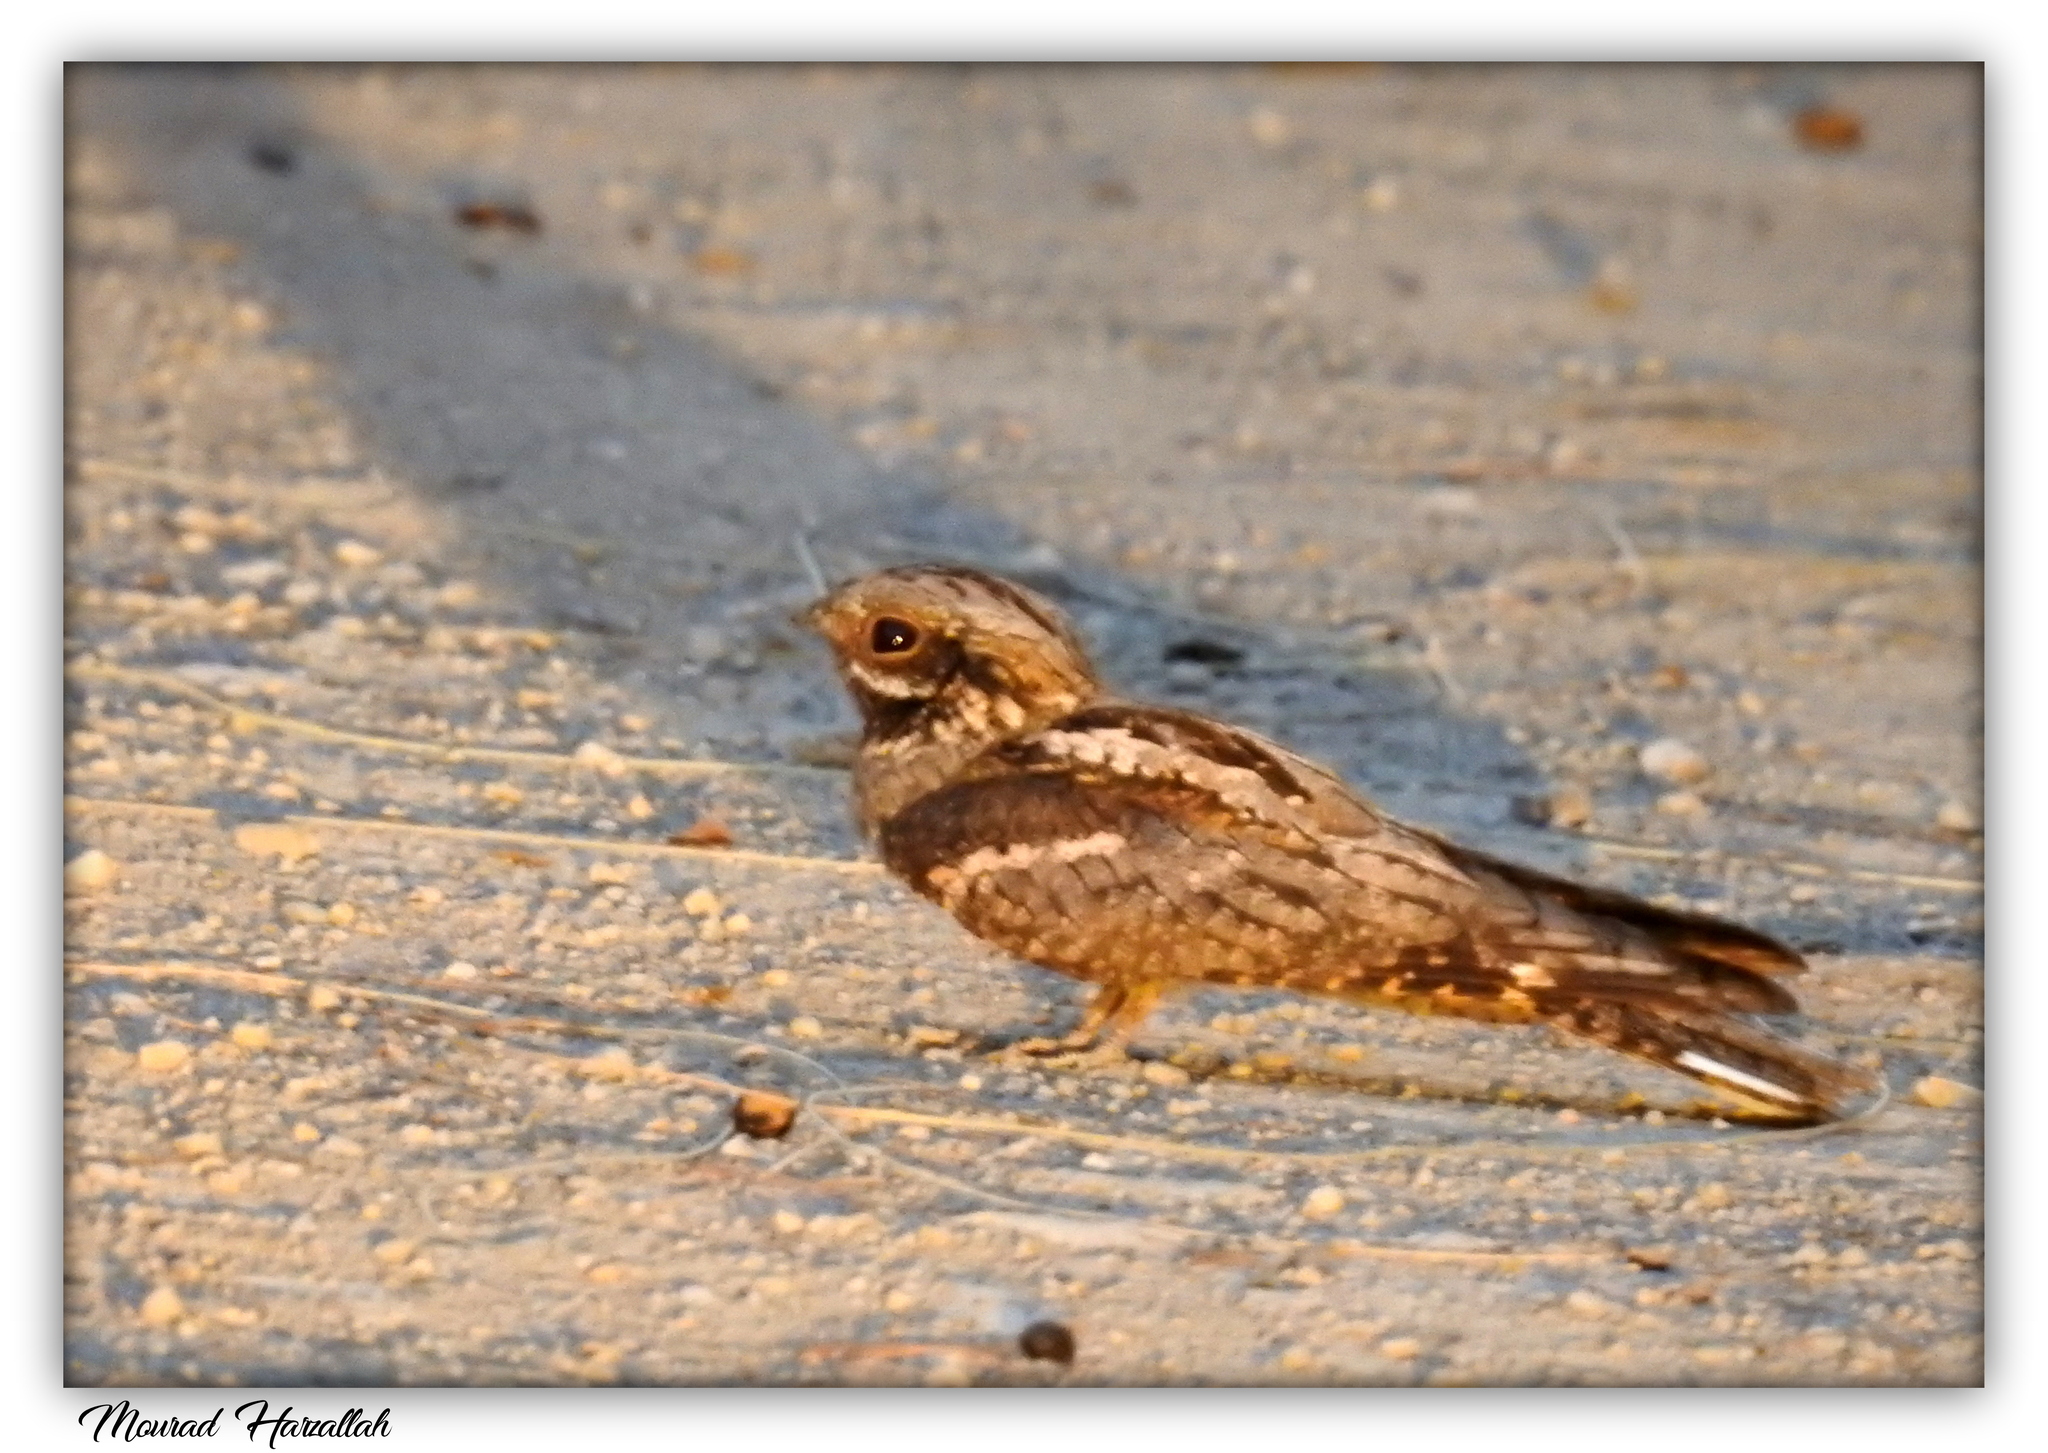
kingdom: Animalia
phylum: Chordata
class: Aves
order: Caprimulgiformes
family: Caprimulgidae
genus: Caprimulgus
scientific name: Caprimulgus europaeus
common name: European nightjar
